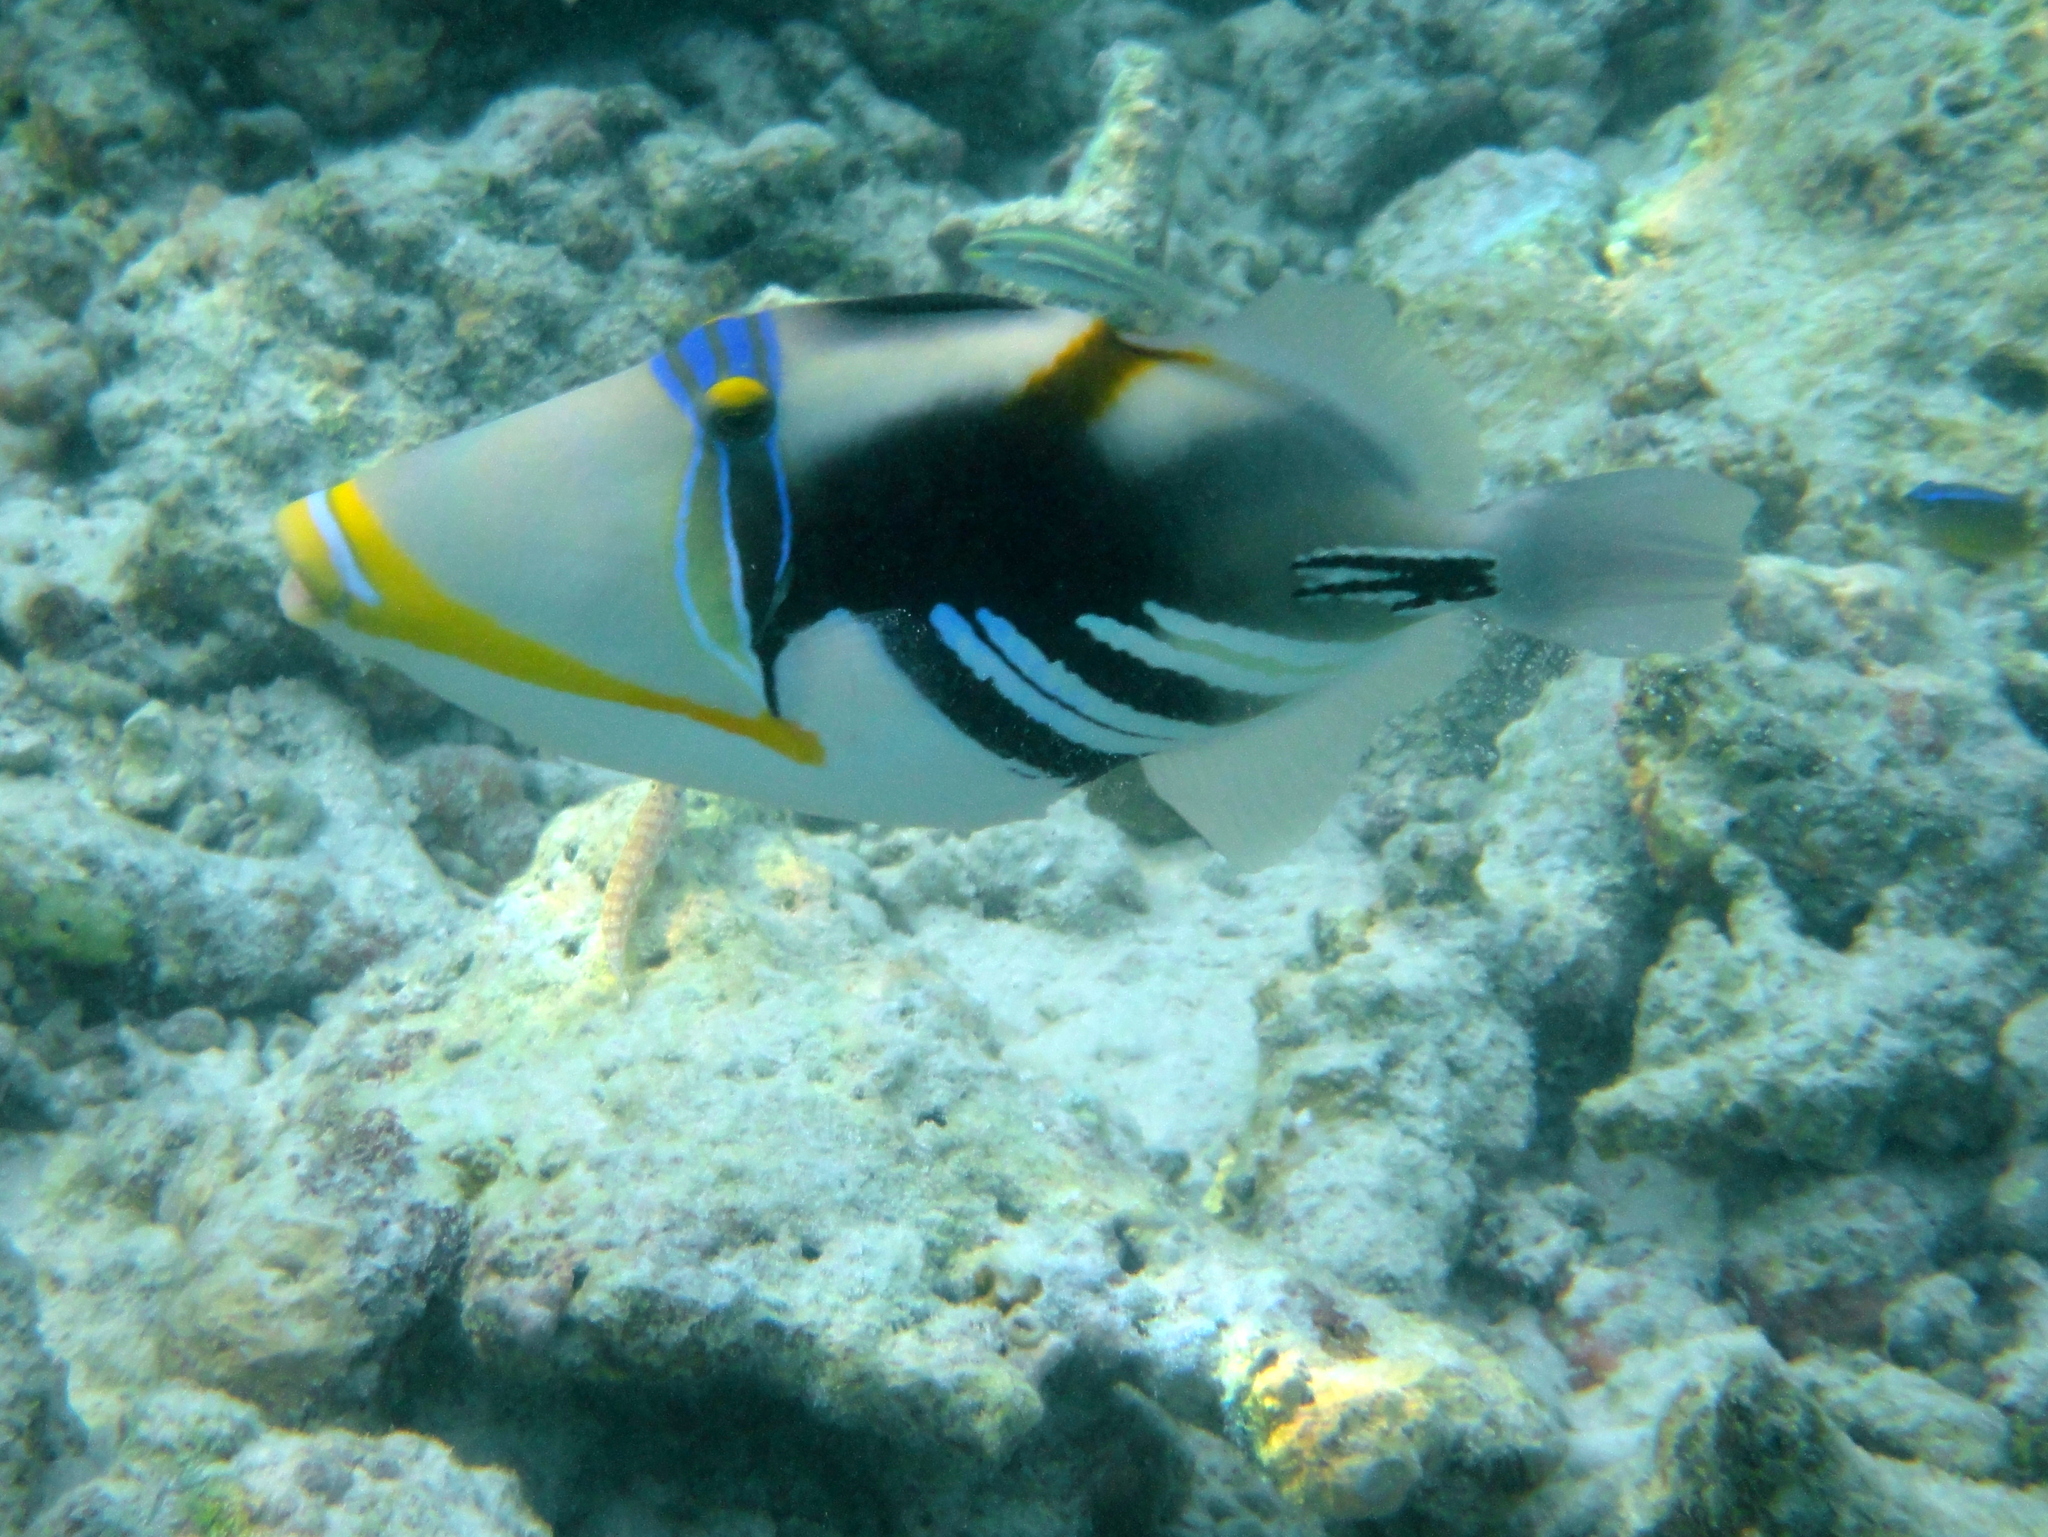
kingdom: Animalia
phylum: Chordata
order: Tetraodontiformes
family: Balistidae
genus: Rhinecanthus
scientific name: Rhinecanthus aculeatus
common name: White-banded triggerfish
